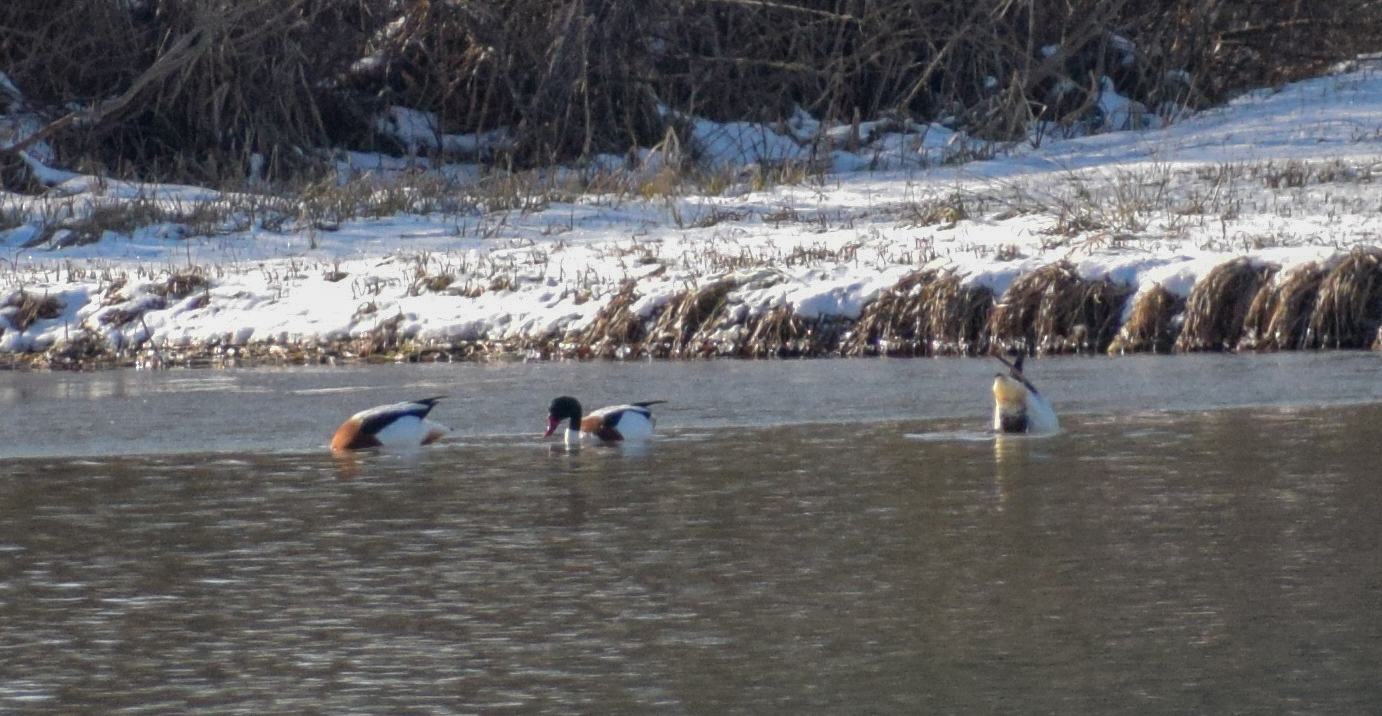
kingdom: Animalia
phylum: Chordata
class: Aves
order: Anseriformes
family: Anatidae
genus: Tadorna
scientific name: Tadorna tadorna
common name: Common shelduck
